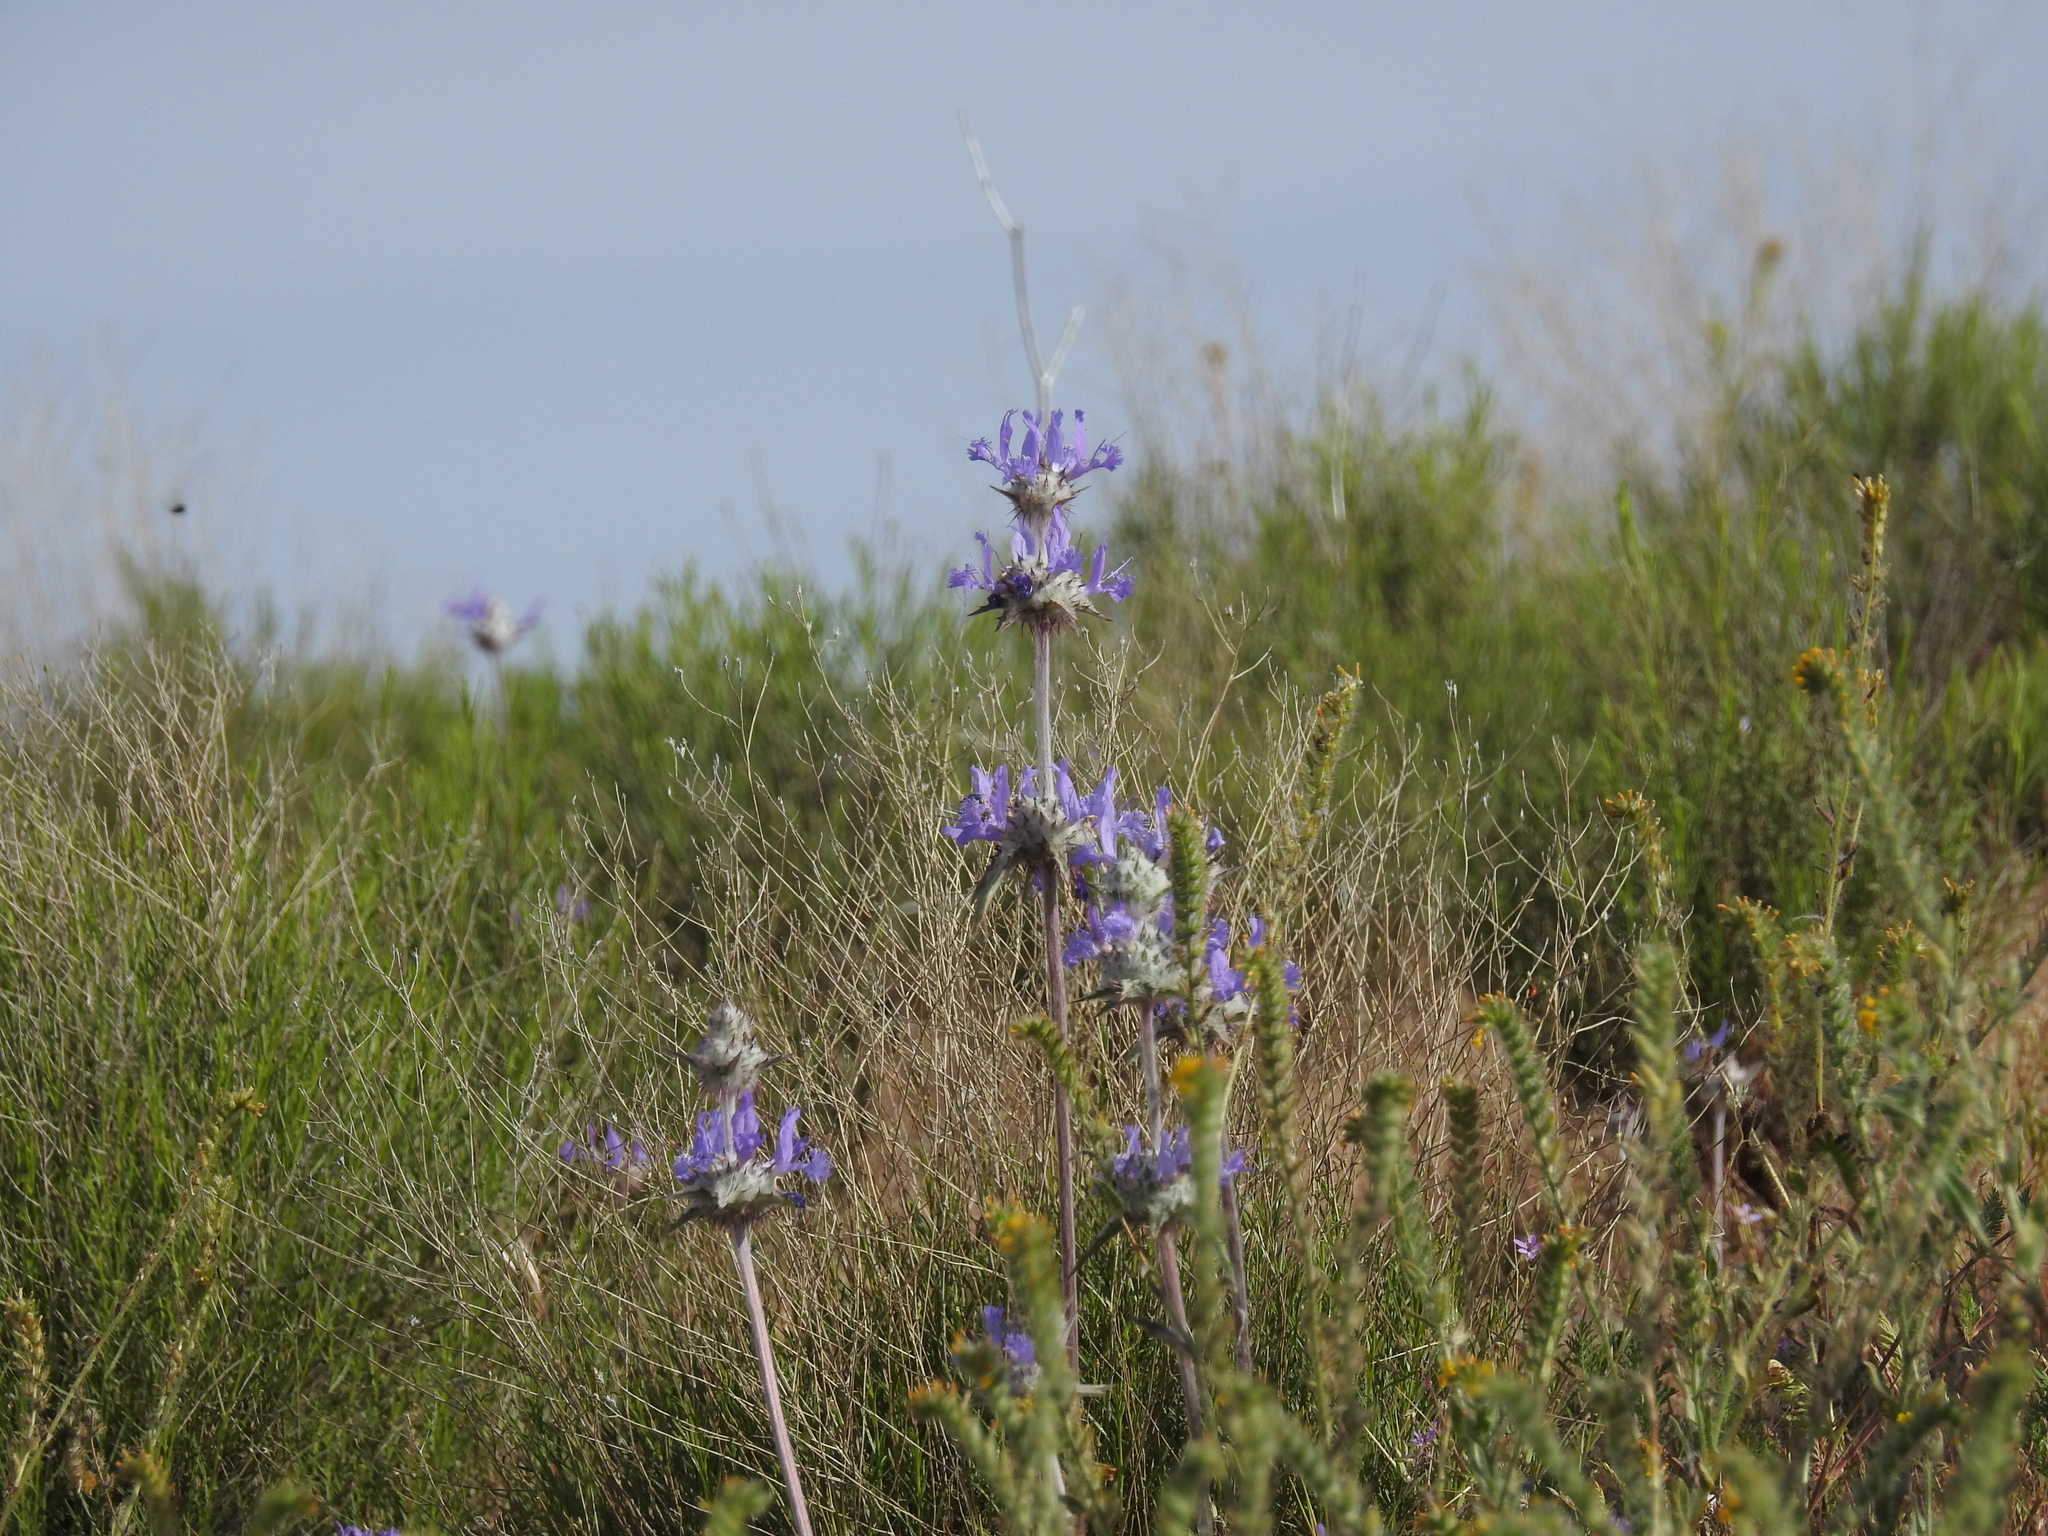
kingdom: Plantae
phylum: Tracheophyta
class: Magnoliopsida
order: Lamiales
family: Lamiaceae
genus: Salvia
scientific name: Salvia carduacea
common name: Thistle sage
